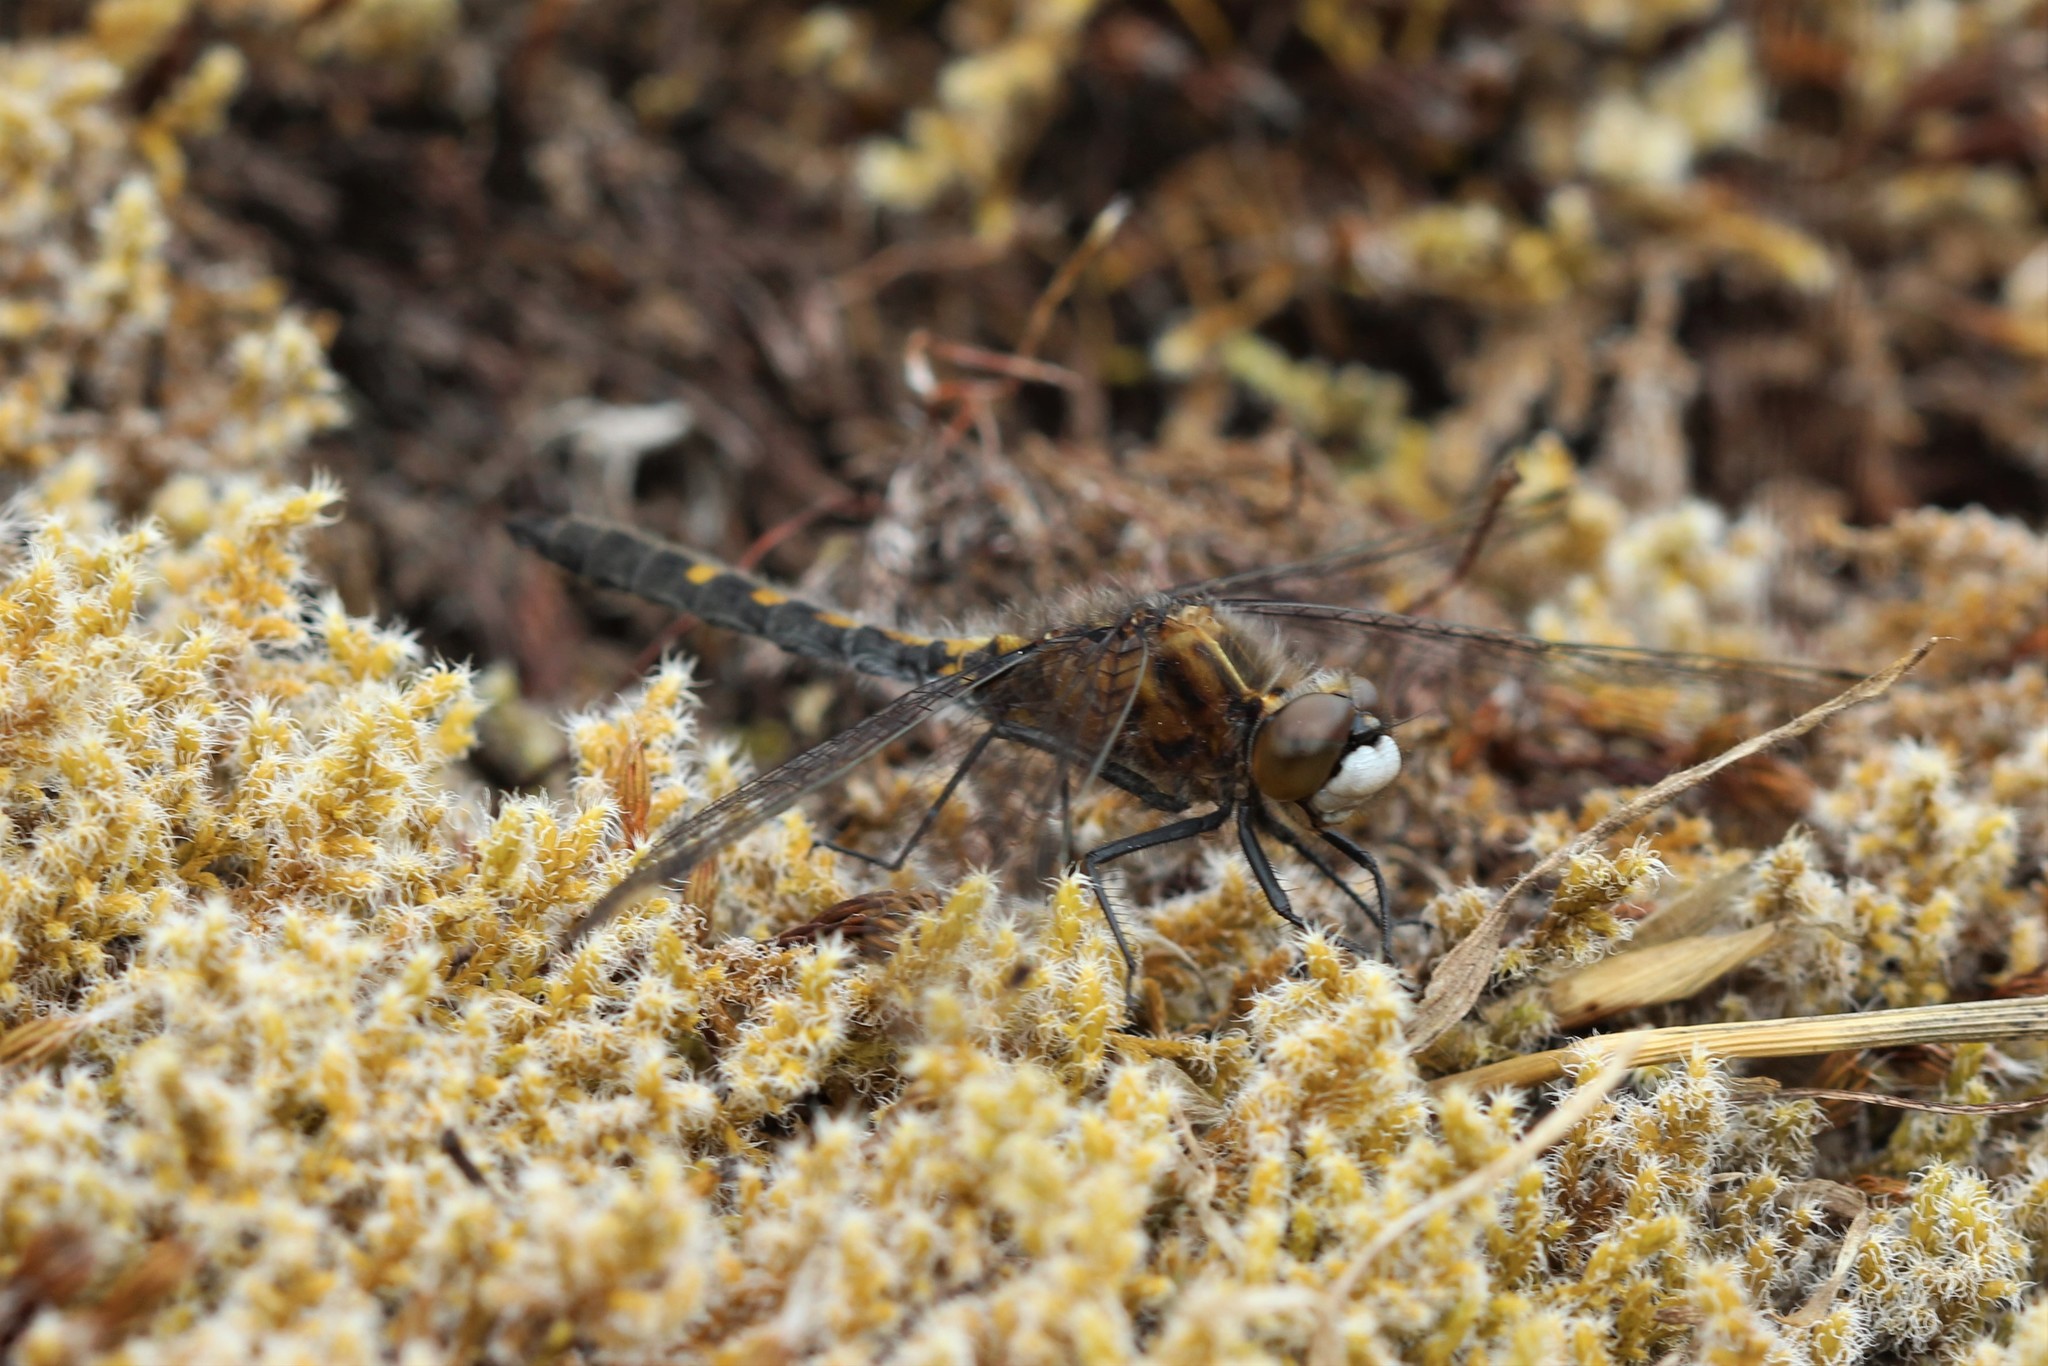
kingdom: Animalia
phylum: Arthropoda
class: Insecta
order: Odonata
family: Libellulidae
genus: Leucorrhinia
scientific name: Leucorrhinia intacta
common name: Dot-tailed whiteface
